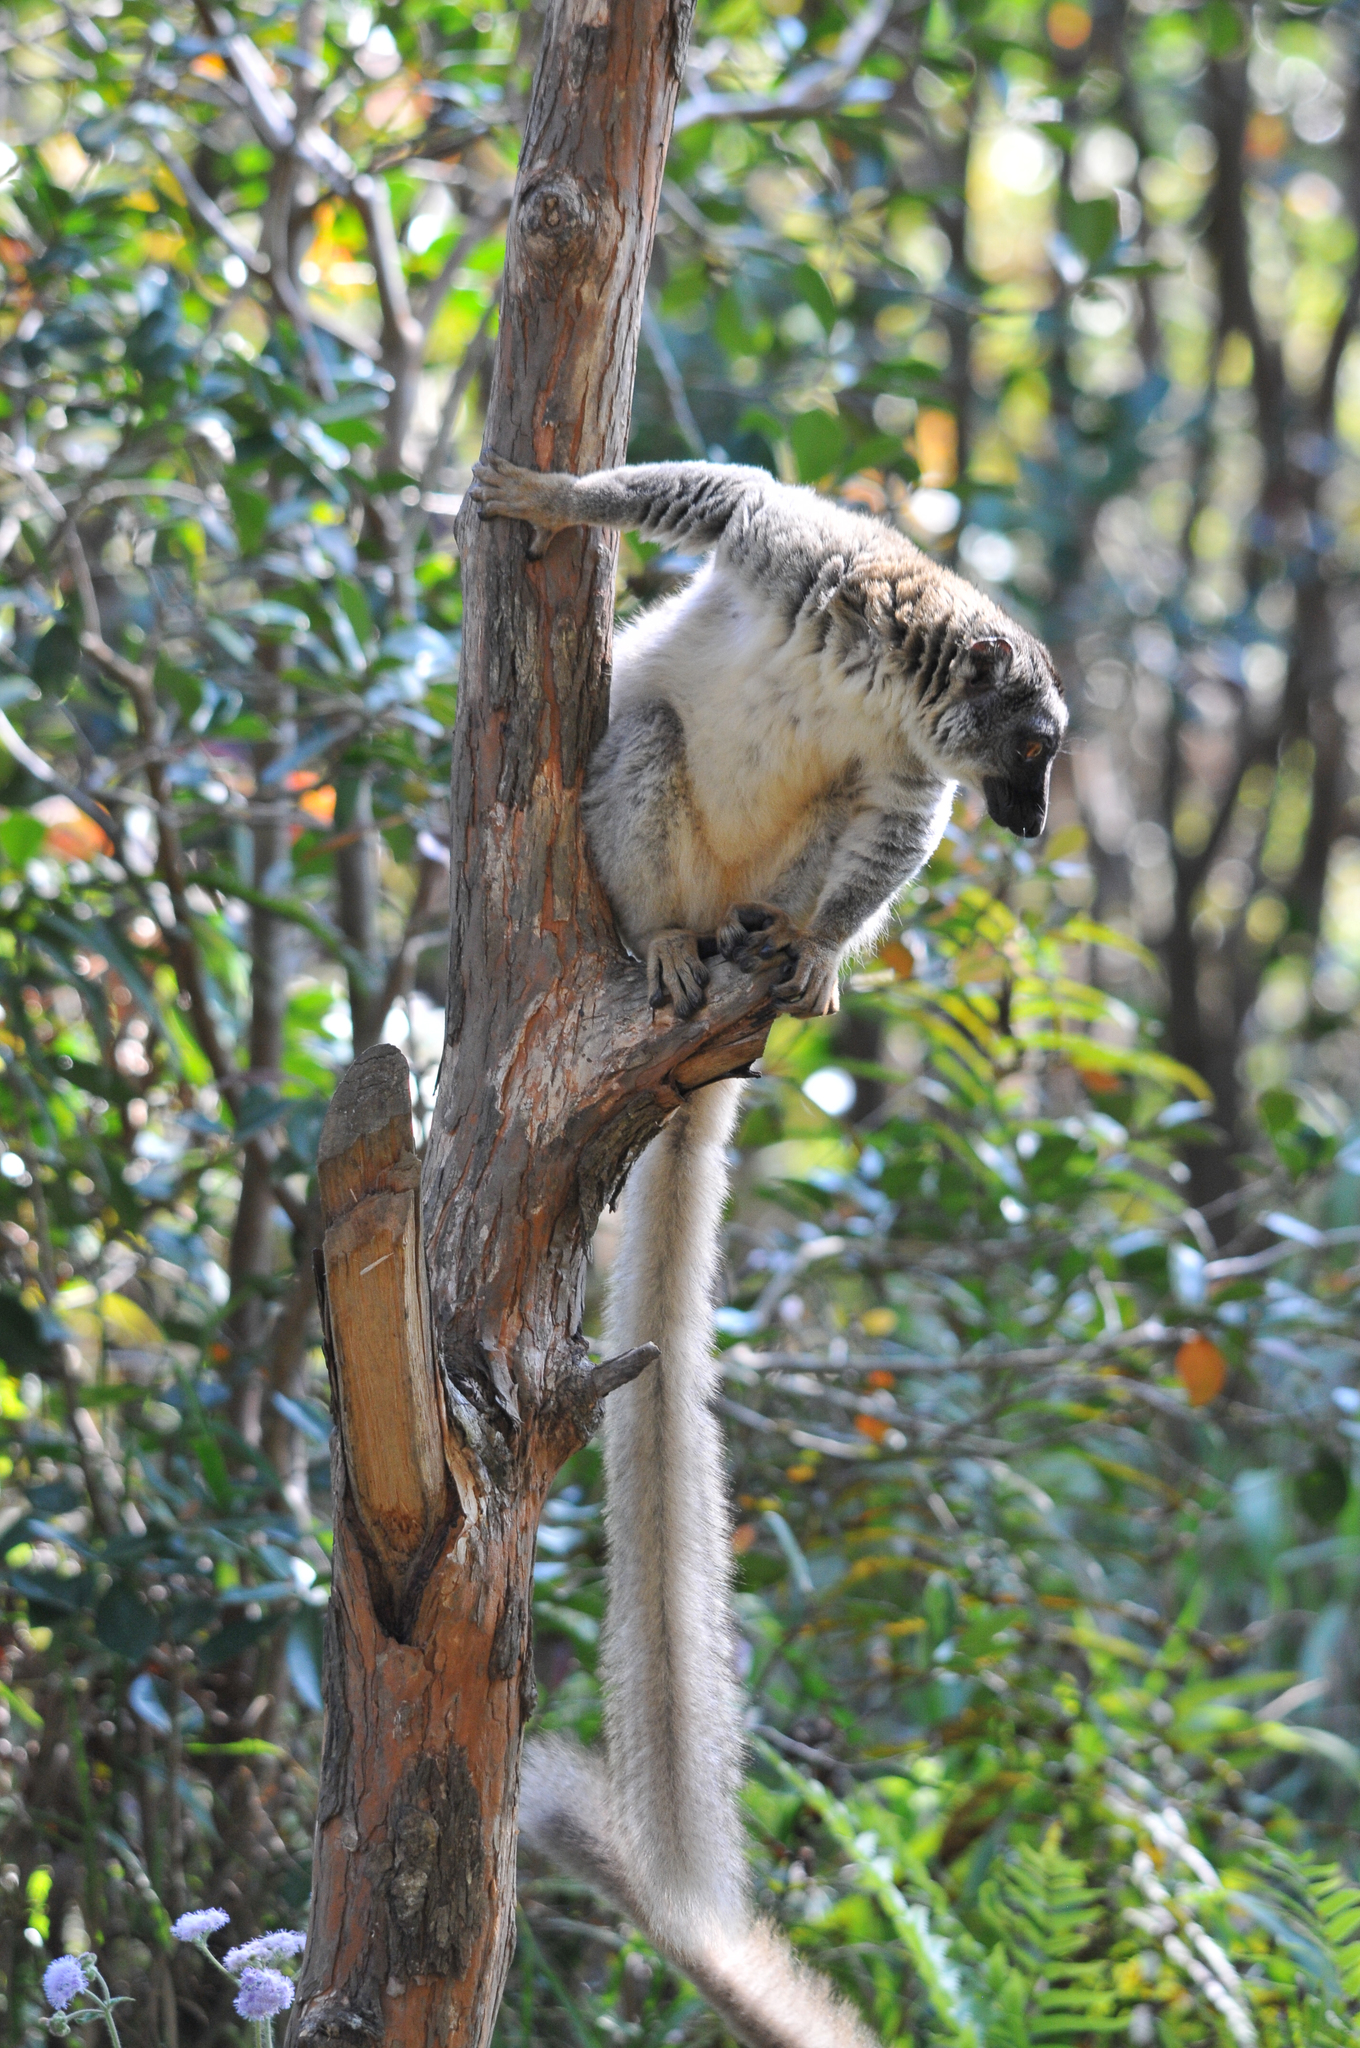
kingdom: Animalia
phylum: Chordata
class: Mammalia
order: Primates
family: Lemuridae
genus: Eulemur
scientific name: Eulemur fulvus
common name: Brown lemur
